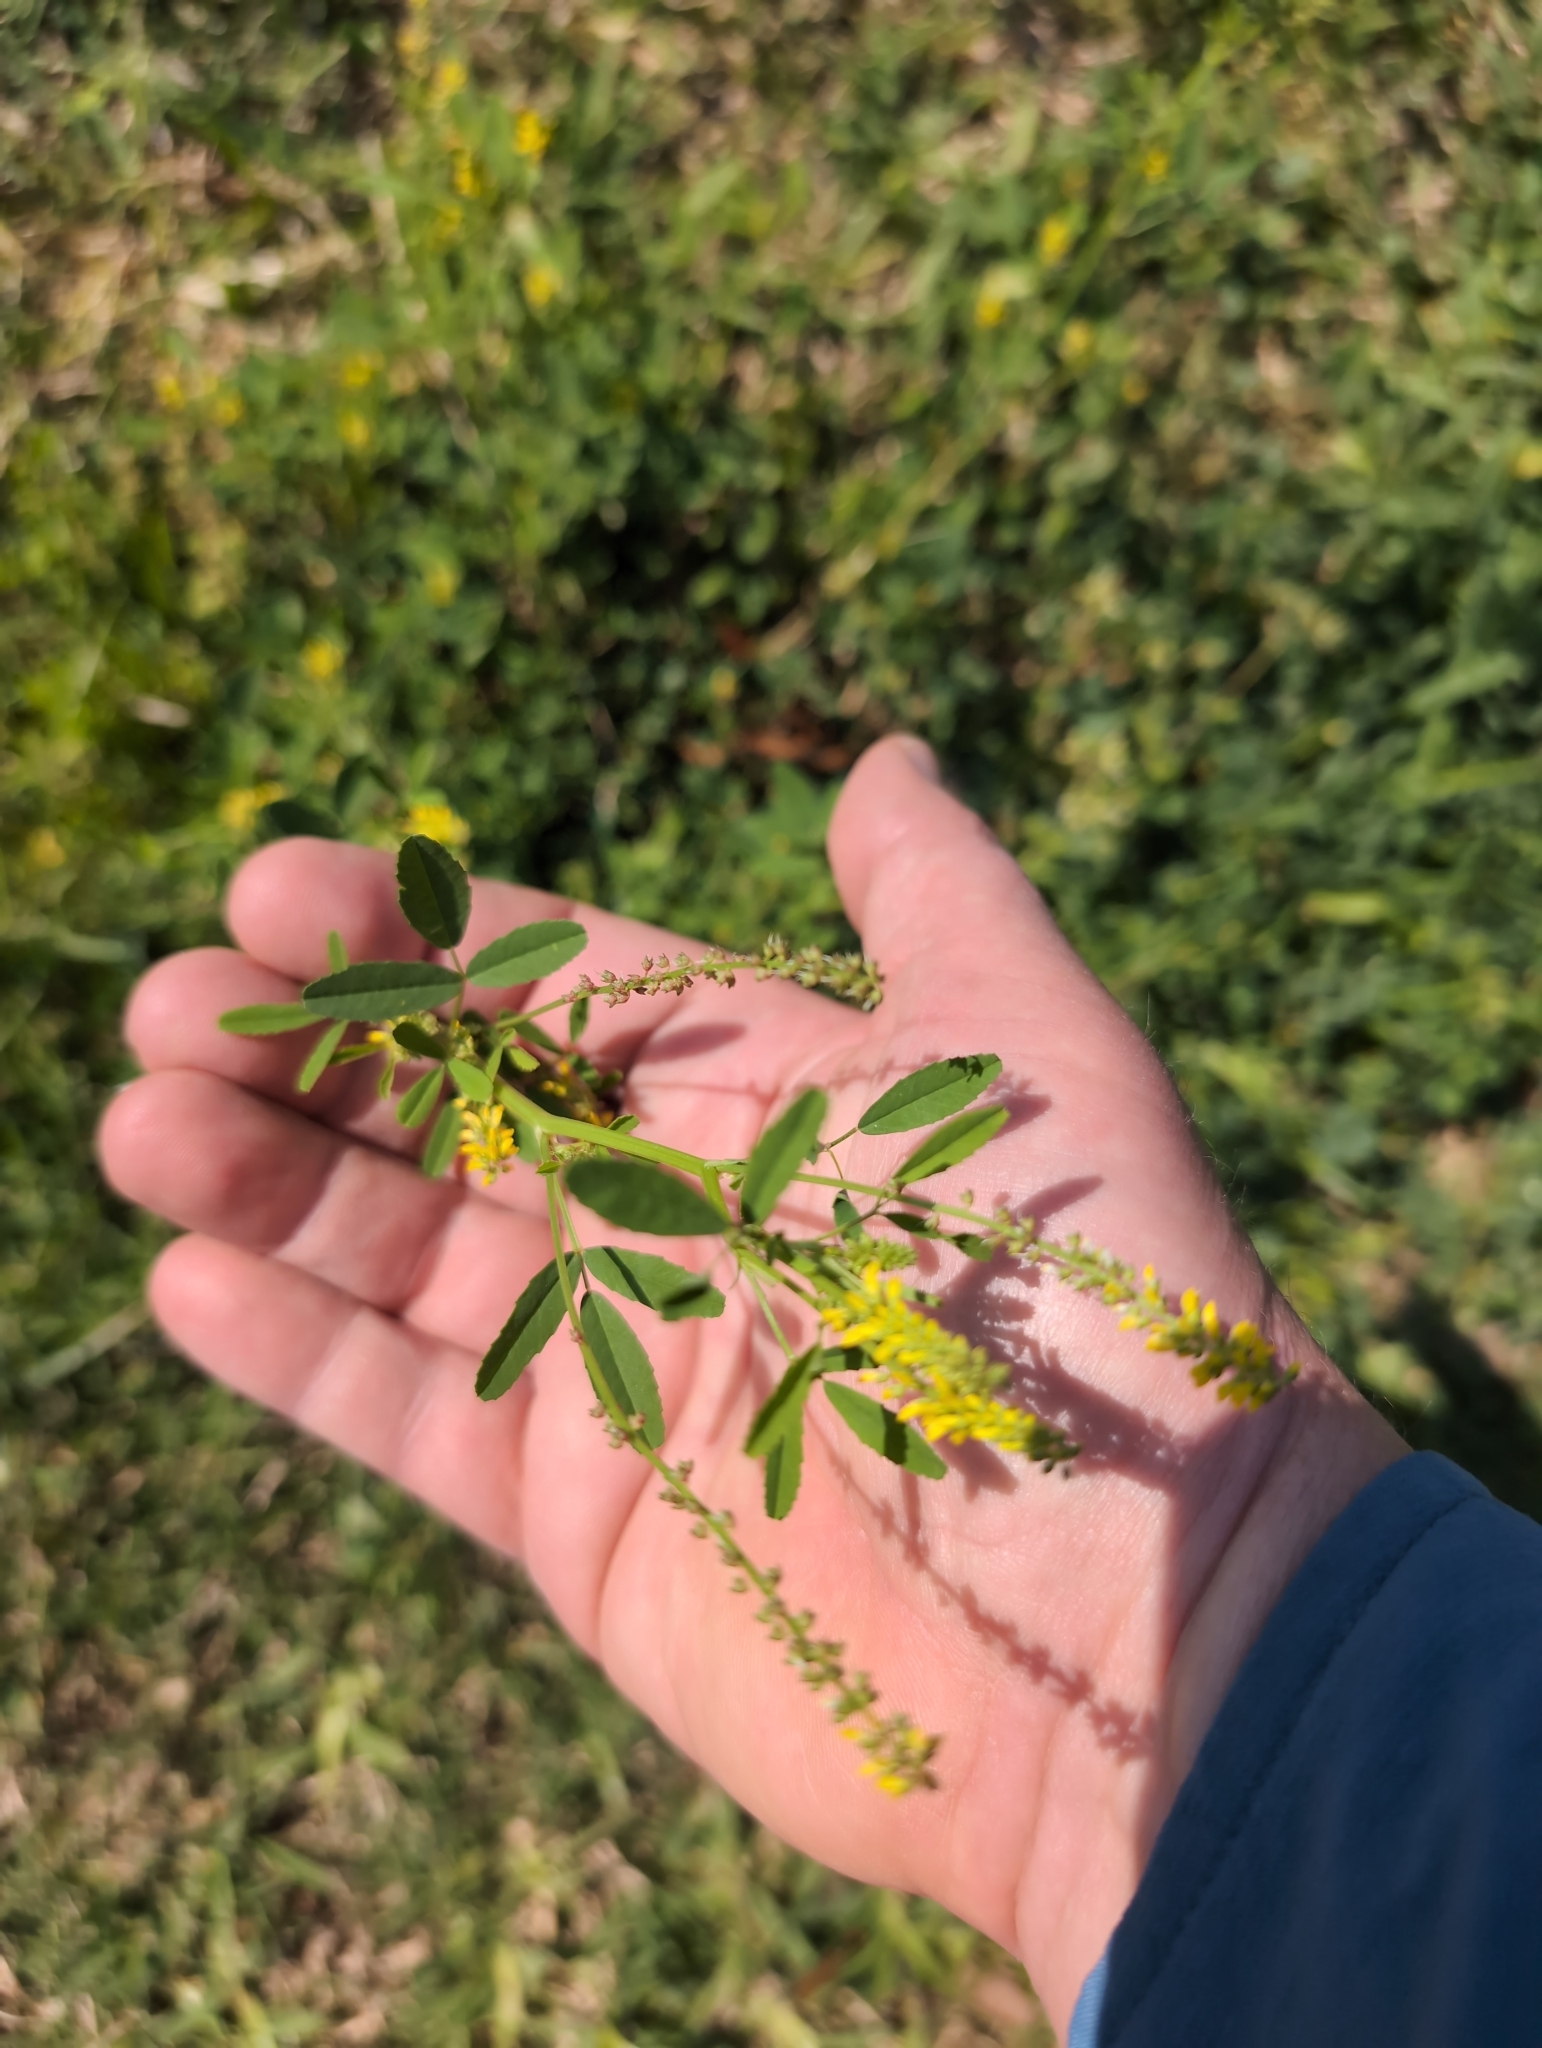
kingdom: Plantae
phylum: Tracheophyta
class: Magnoliopsida
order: Fabales
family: Fabaceae
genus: Melilotus
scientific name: Melilotus indicus
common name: Small melilot
